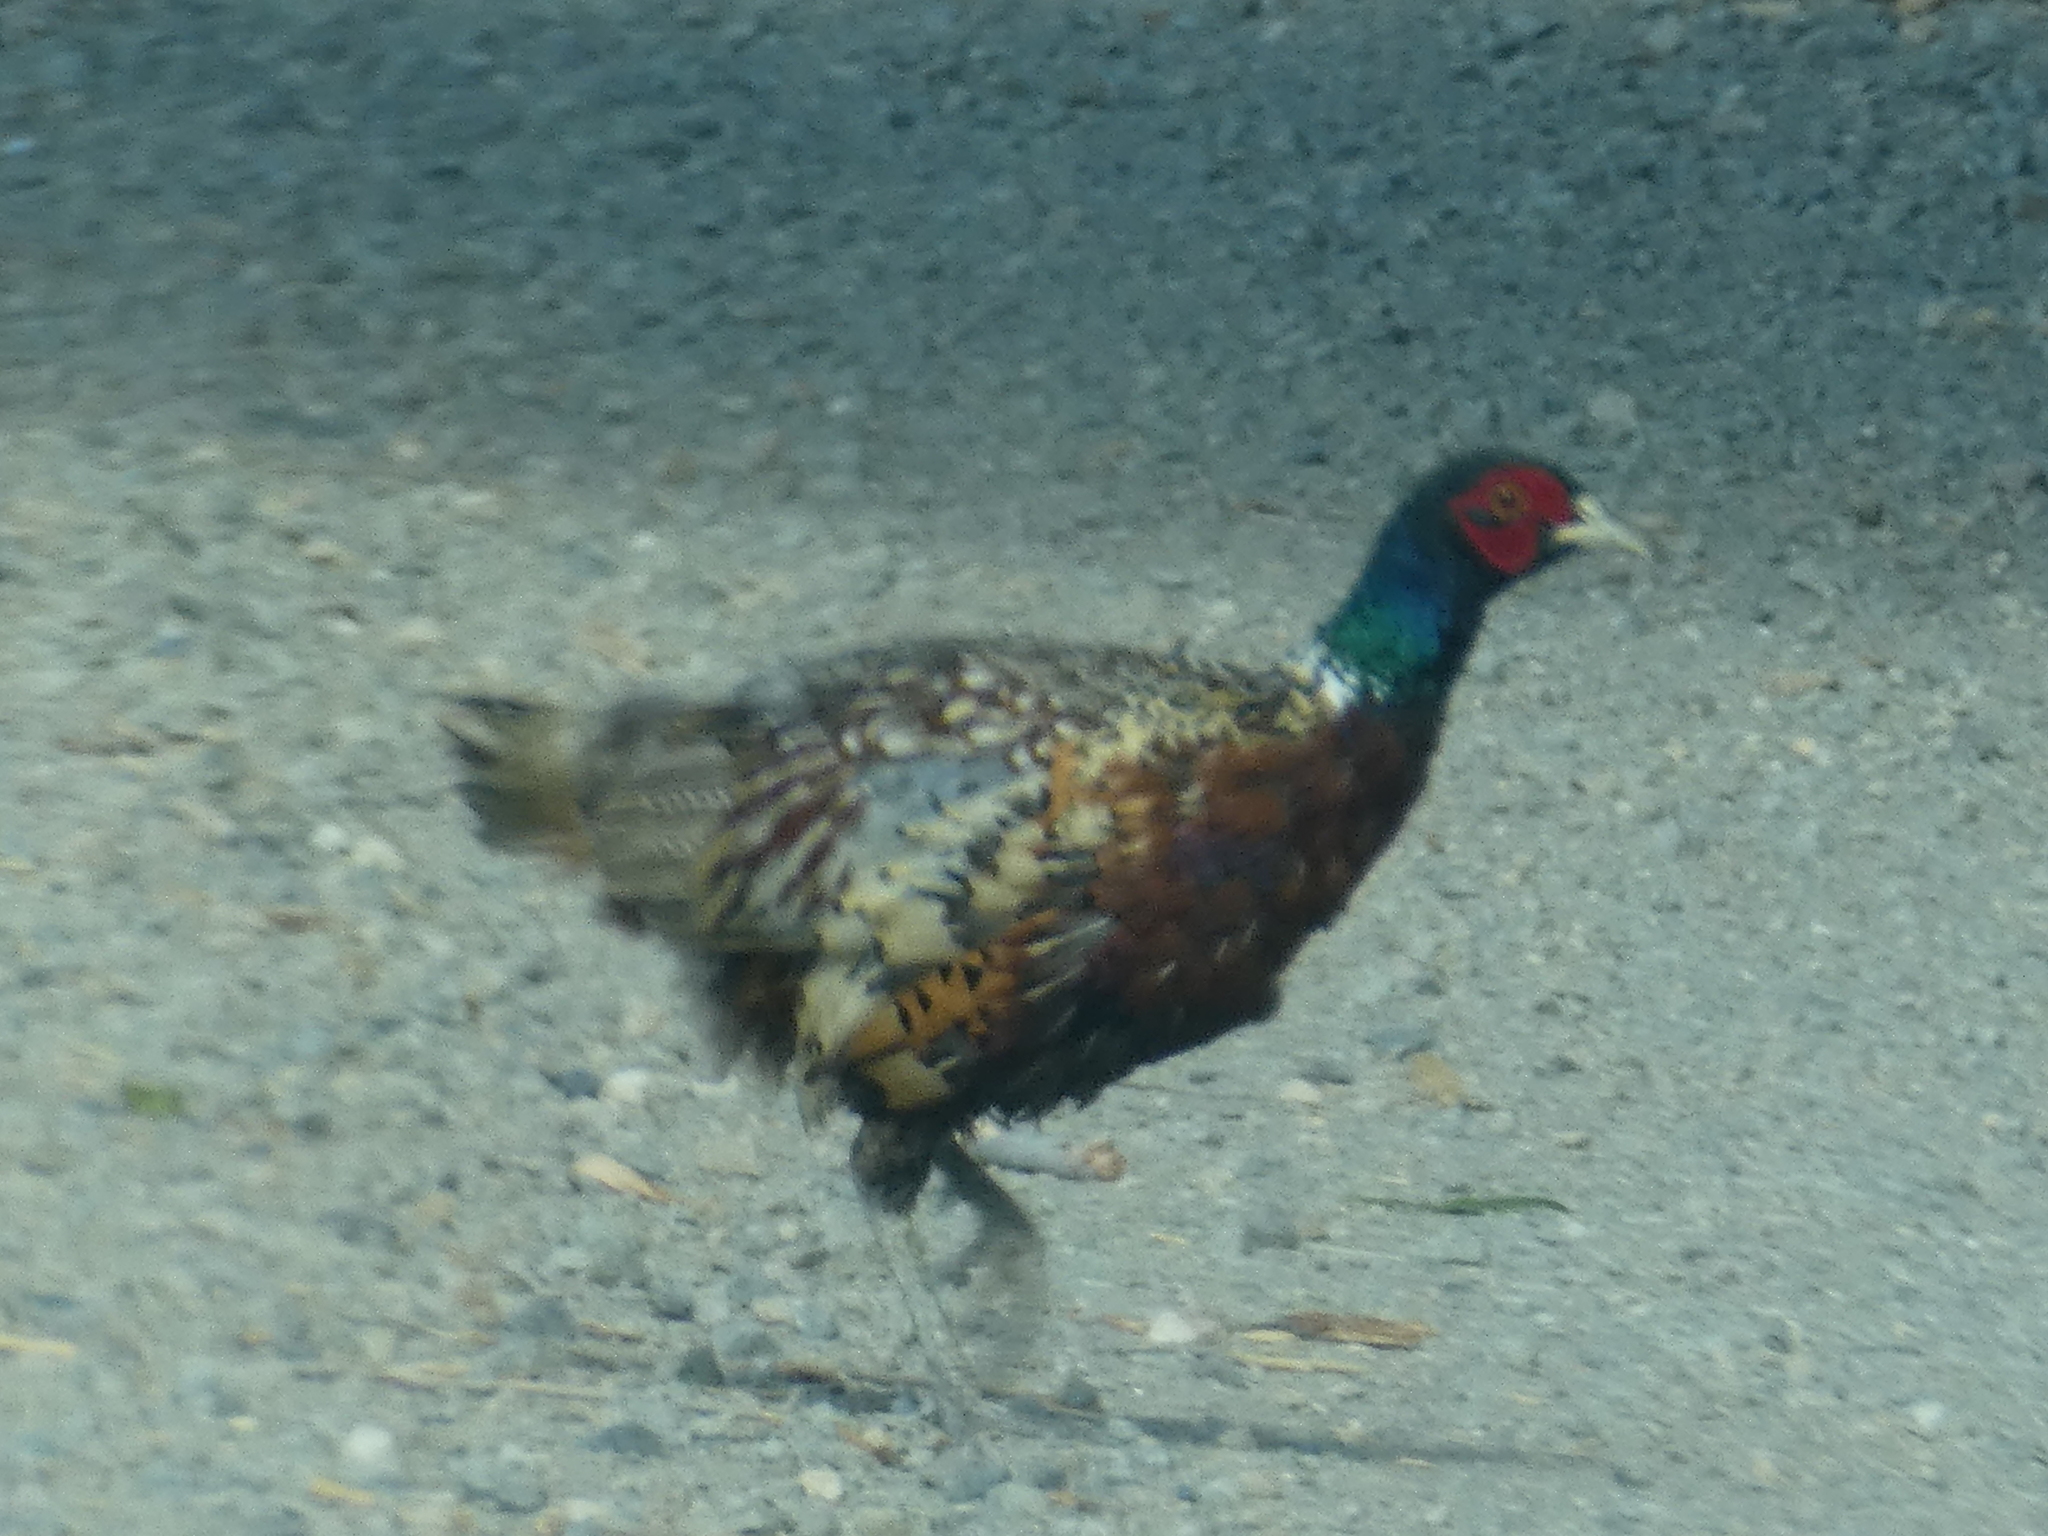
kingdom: Animalia
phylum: Chordata
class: Aves
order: Galliformes
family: Phasianidae
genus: Phasianus
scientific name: Phasianus colchicus
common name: Common pheasant
